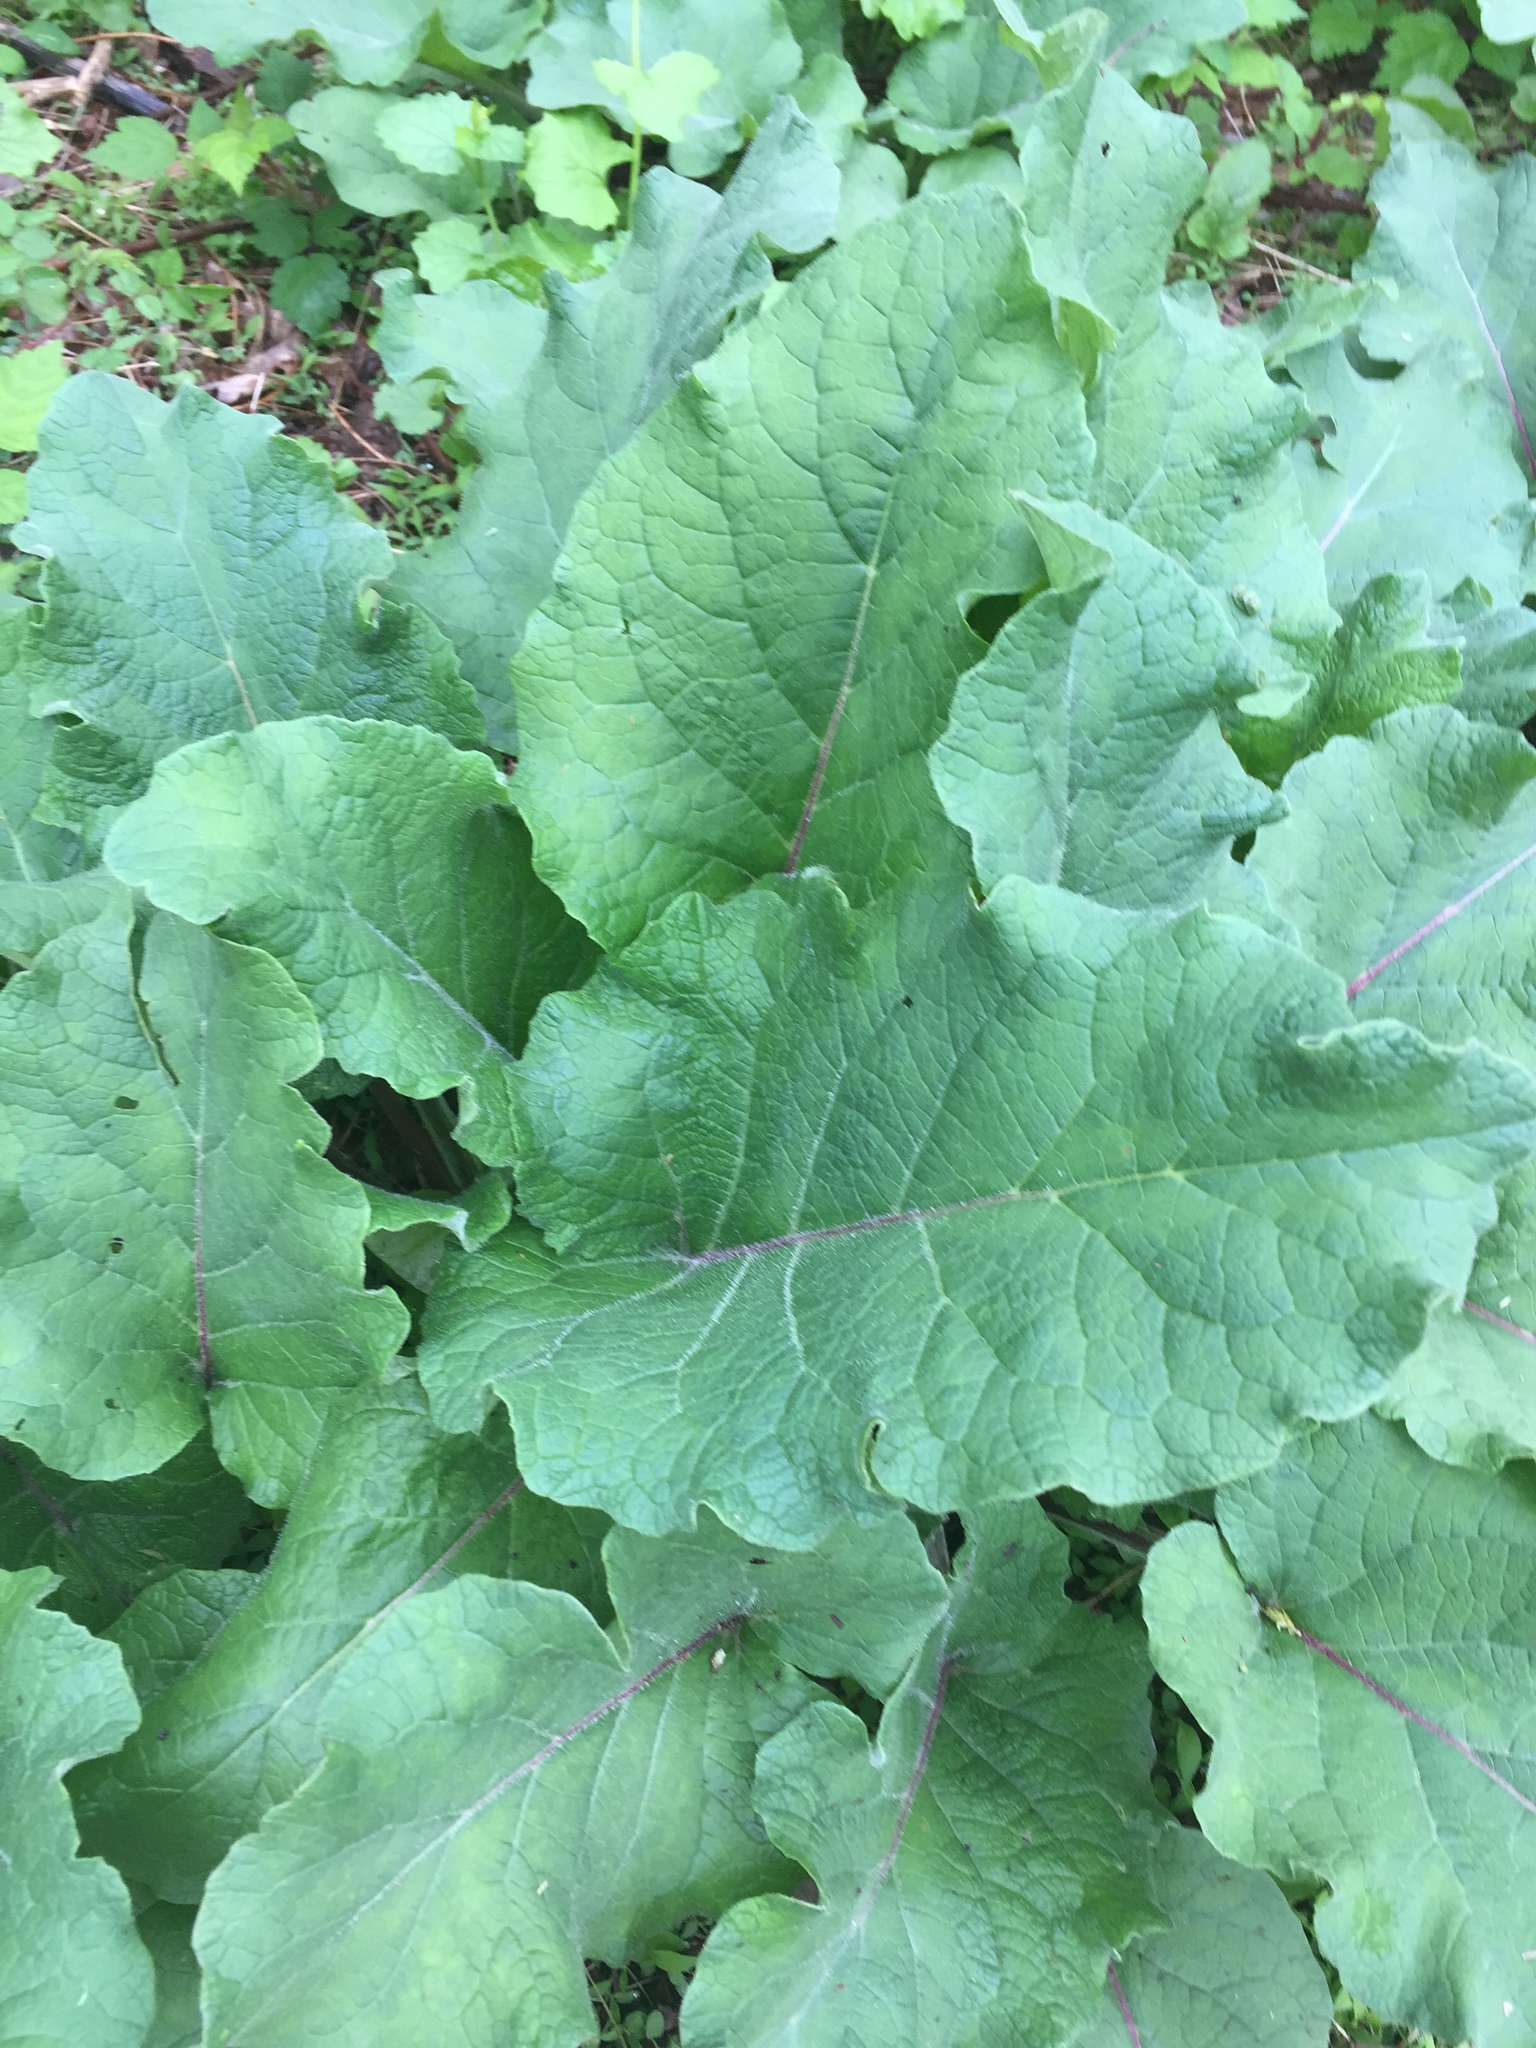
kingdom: Plantae
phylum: Tracheophyta
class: Magnoliopsida
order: Asterales
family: Asteraceae
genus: Arctium
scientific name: Arctium
